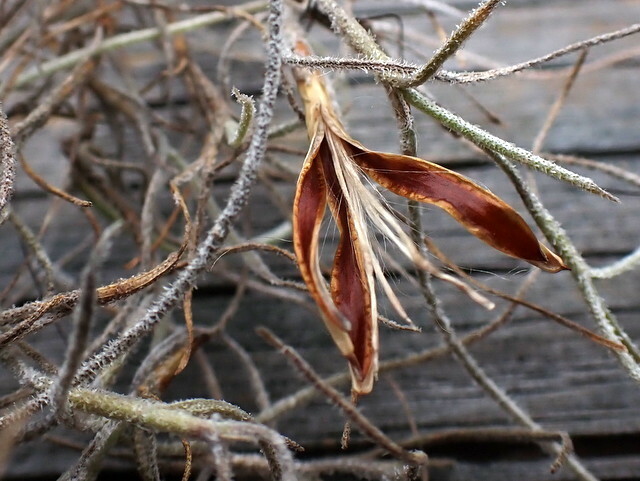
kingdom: Plantae
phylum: Tracheophyta
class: Liliopsida
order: Poales
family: Bromeliaceae
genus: Tillandsia
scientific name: Tillandsia usneoides
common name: Spanish moss
